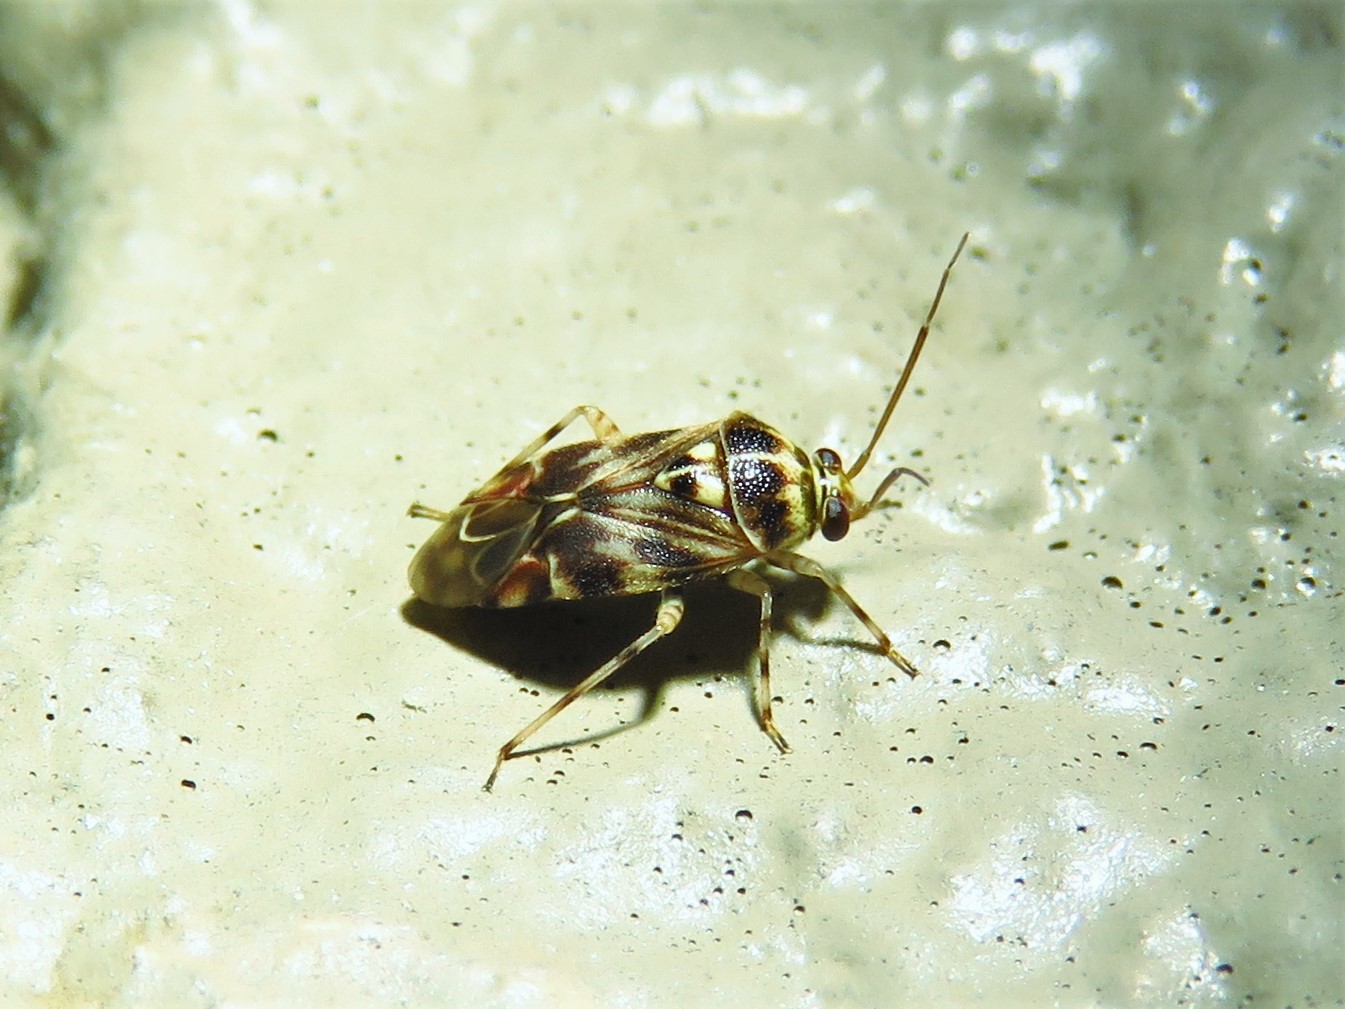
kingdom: Animalia
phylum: Arthropoda
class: Insecta
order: Hemiptera
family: Miridae
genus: Tropidosteptes
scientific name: Tropidosteptes quercicola
